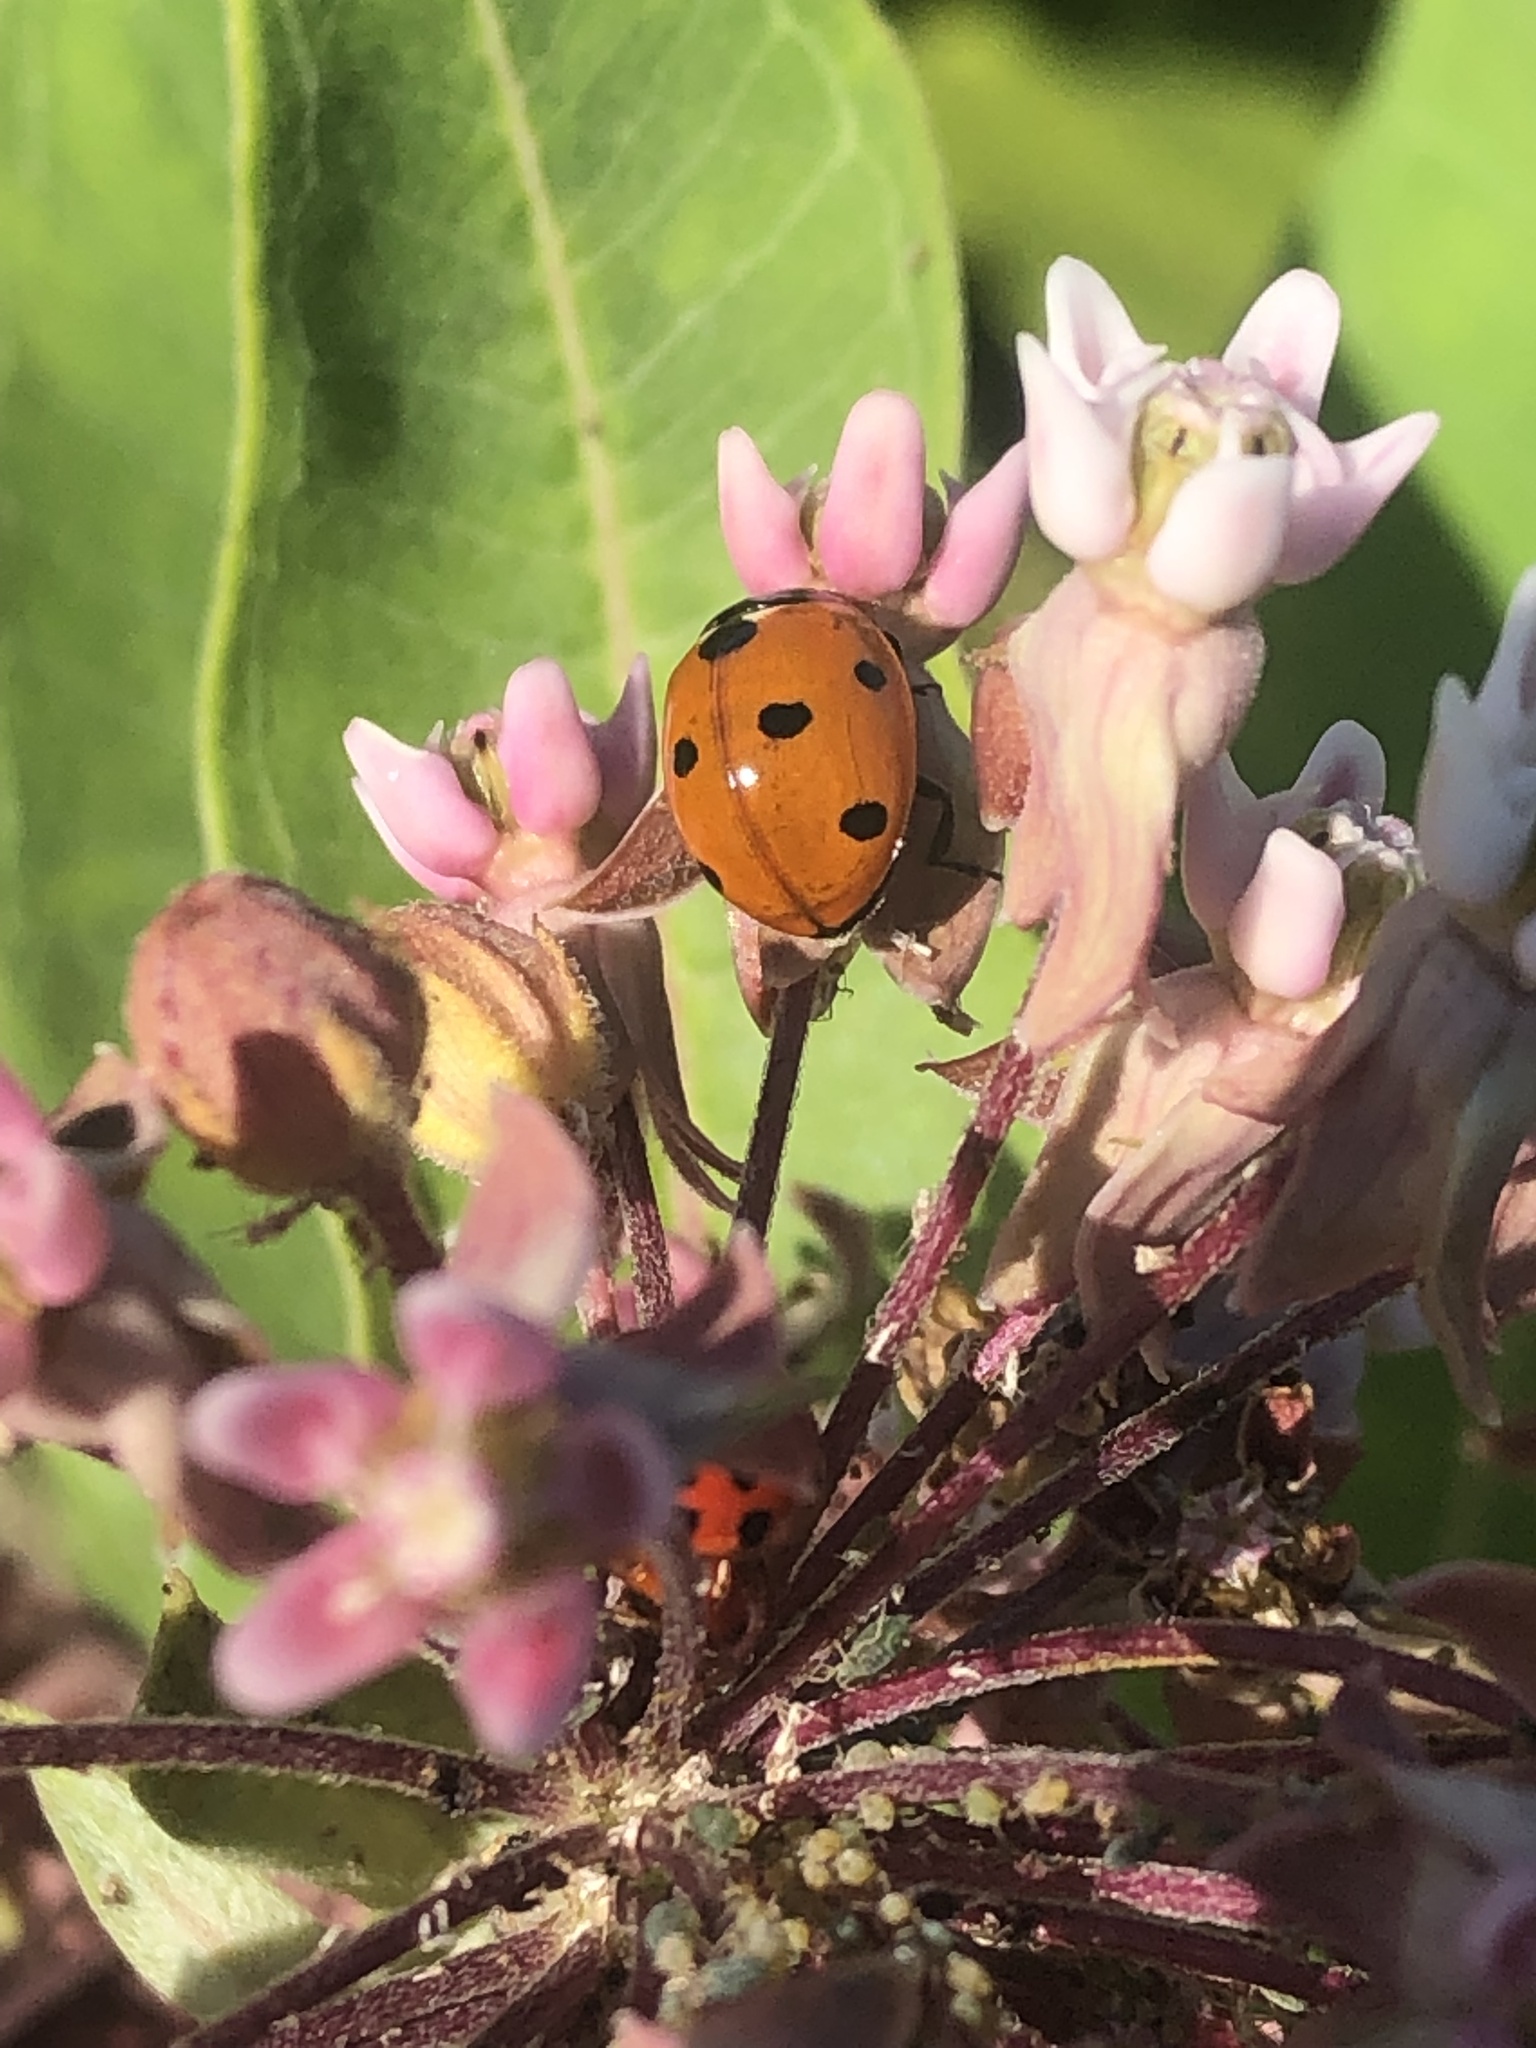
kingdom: Animalia
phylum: Arthropoda
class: Insecta
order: Coleoptera
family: Coccinellidae
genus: Coccinella
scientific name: Coccinella septempunctata
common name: Sevenspotted lady beetle
